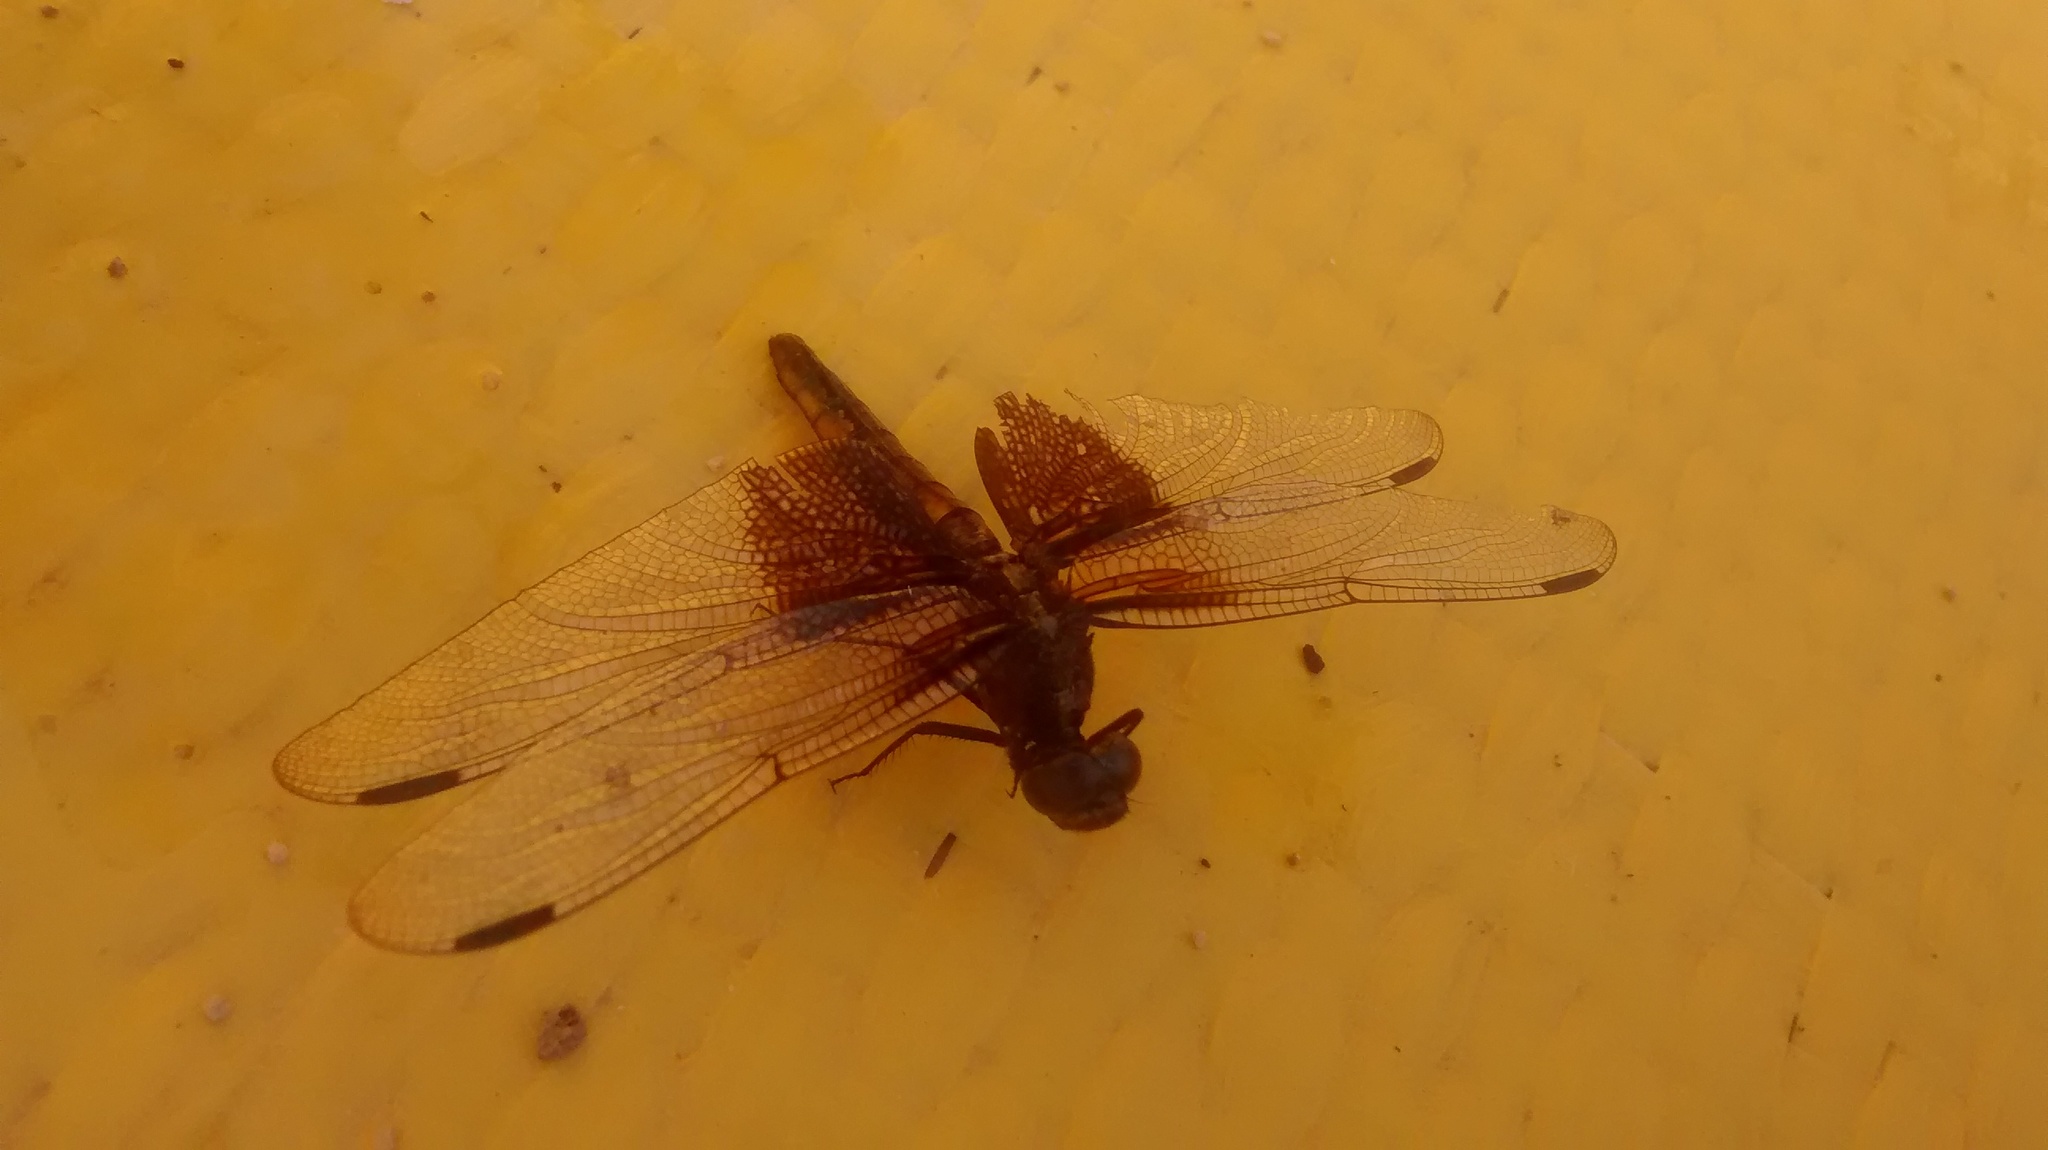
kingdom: Animalia
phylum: Arthropoda
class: Insecta
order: Odonata
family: Libellulidae
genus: Libellula
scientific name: Libellula luctuosa
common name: Widow skimmer
